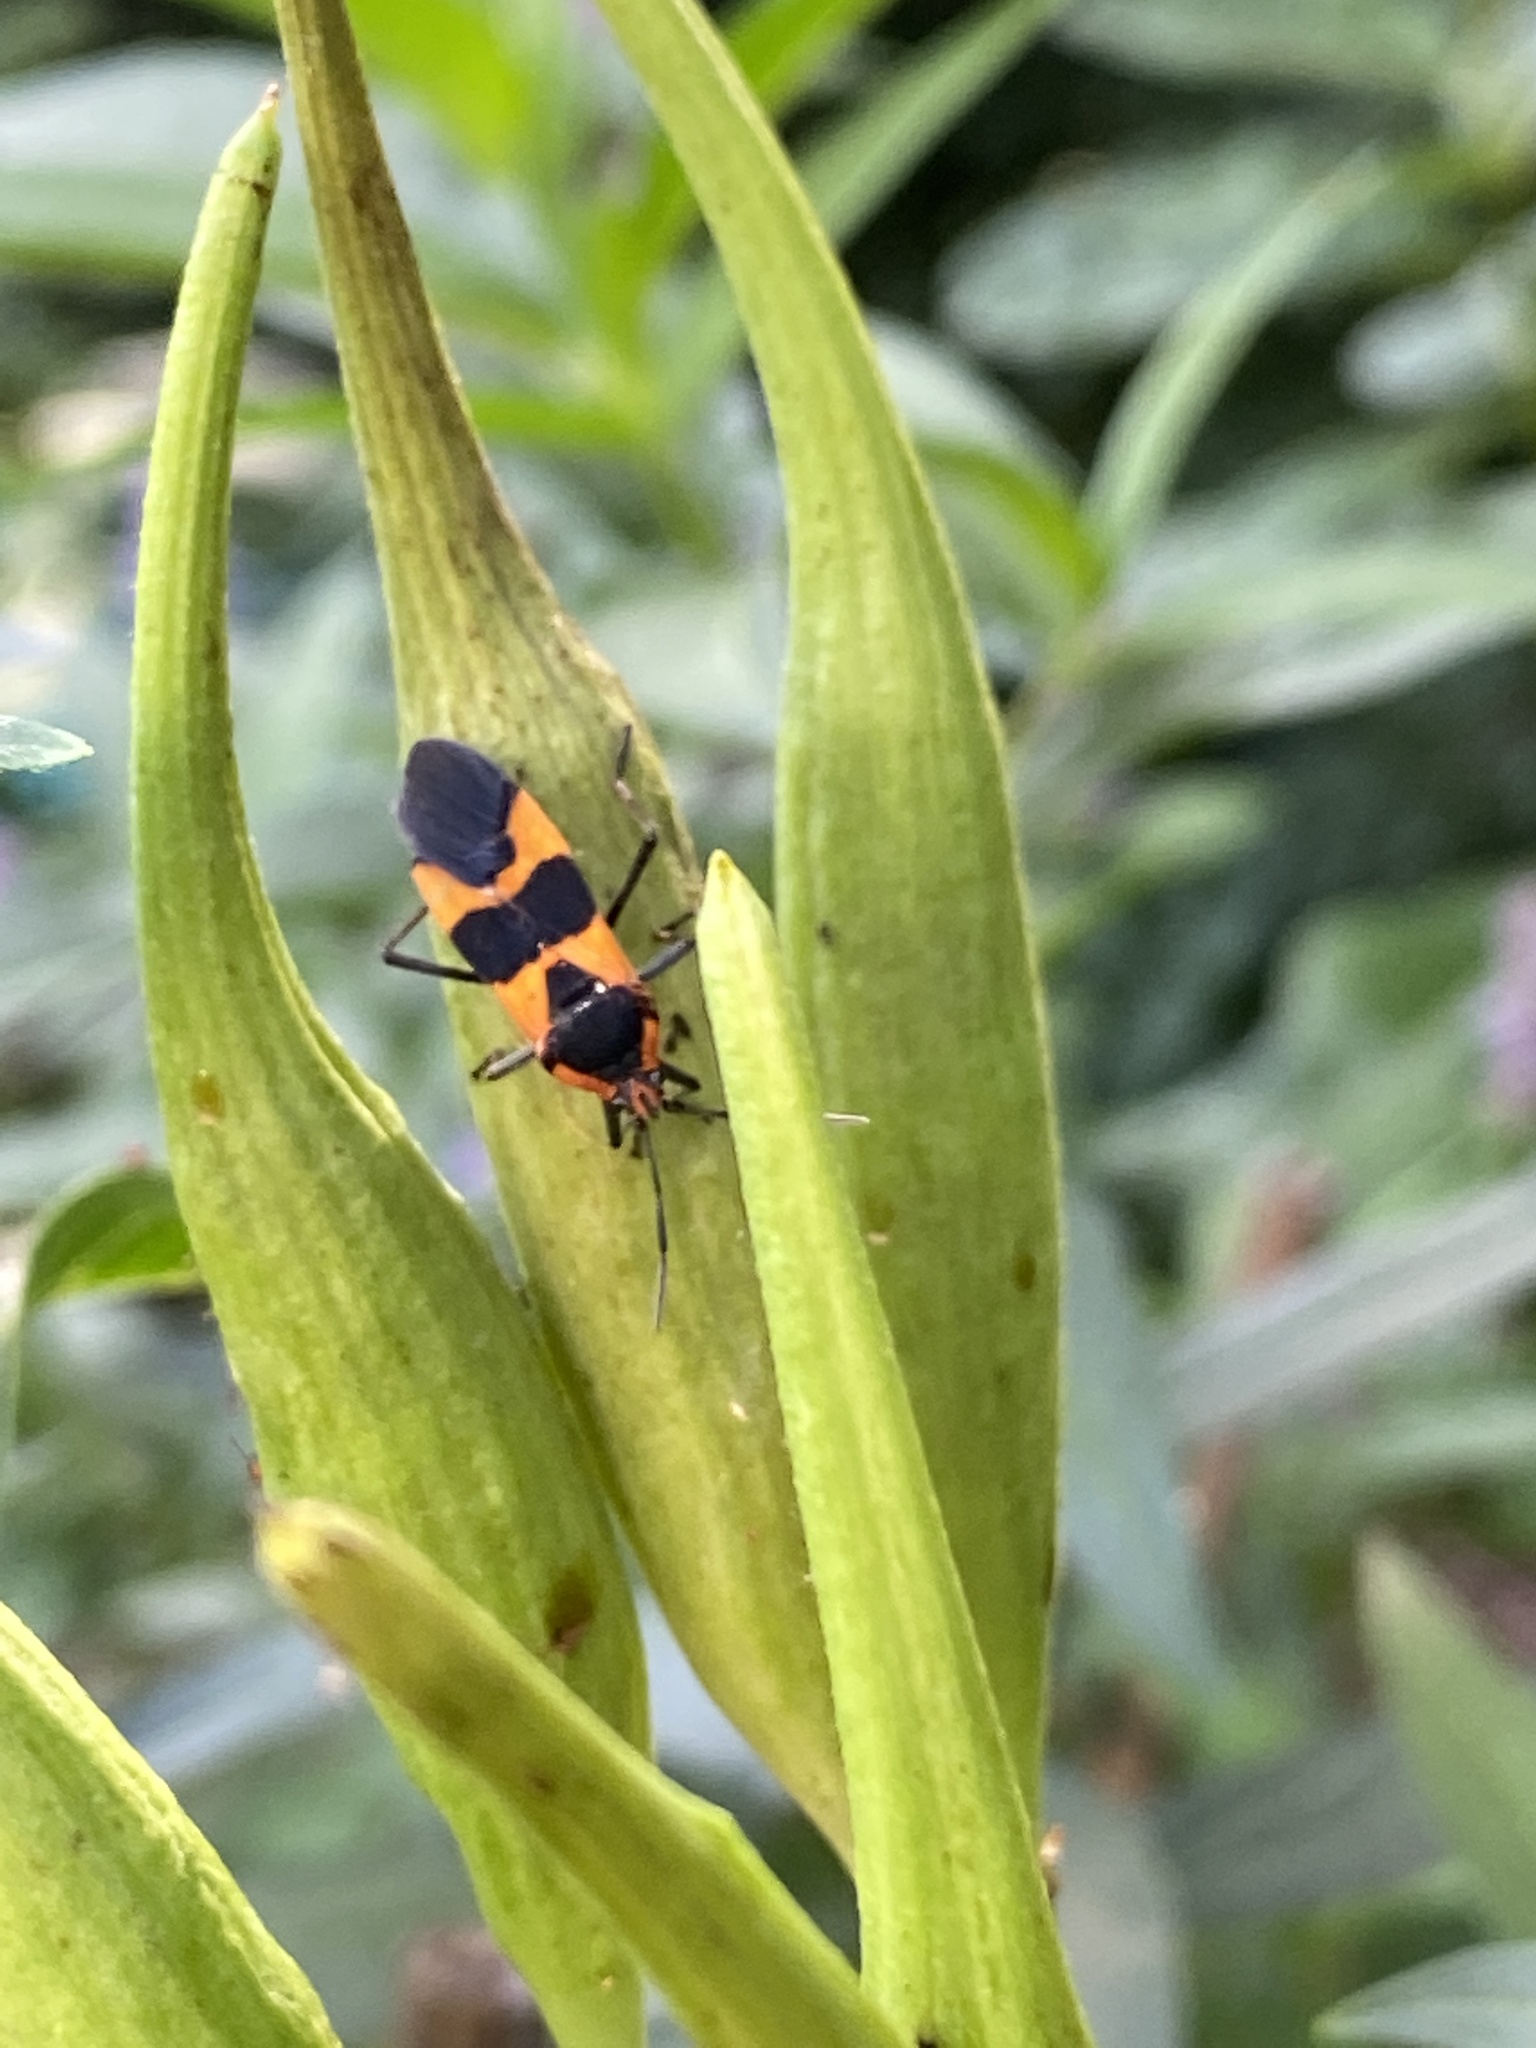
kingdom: Animalia
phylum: Arthropoda
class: Insecta
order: Hemiptera
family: Lygaeidae
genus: Oncopeltus
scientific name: Oncopeltus fasciatus
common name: Large milkweed bug
